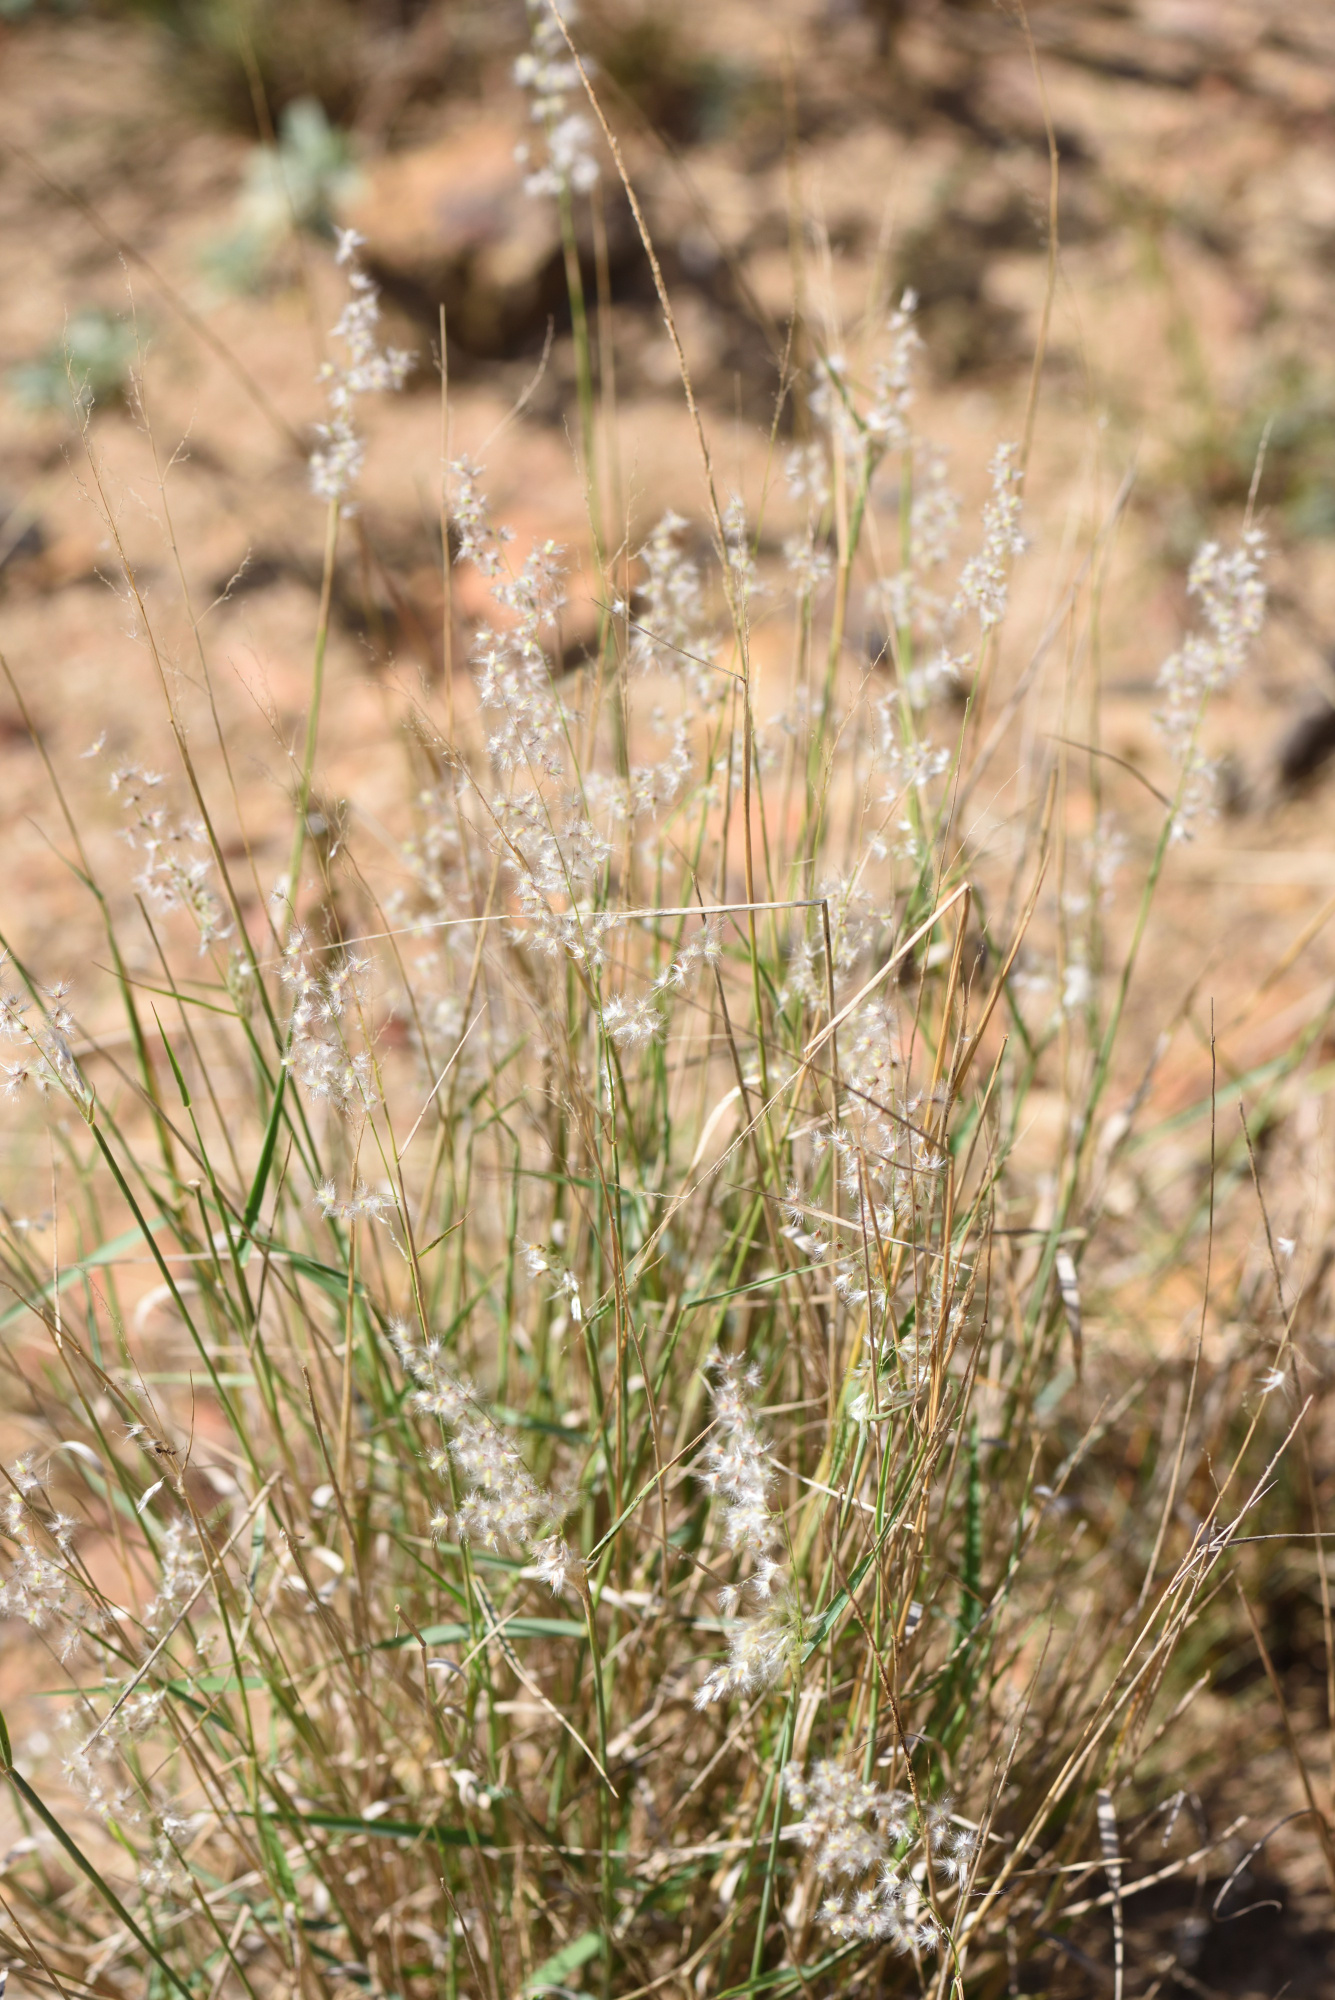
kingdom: Plantae
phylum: Tracheophyta
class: Liliopsida
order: Poales
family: Poaceae
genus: Melinis
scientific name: Melinis repens
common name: Rose natal grass
